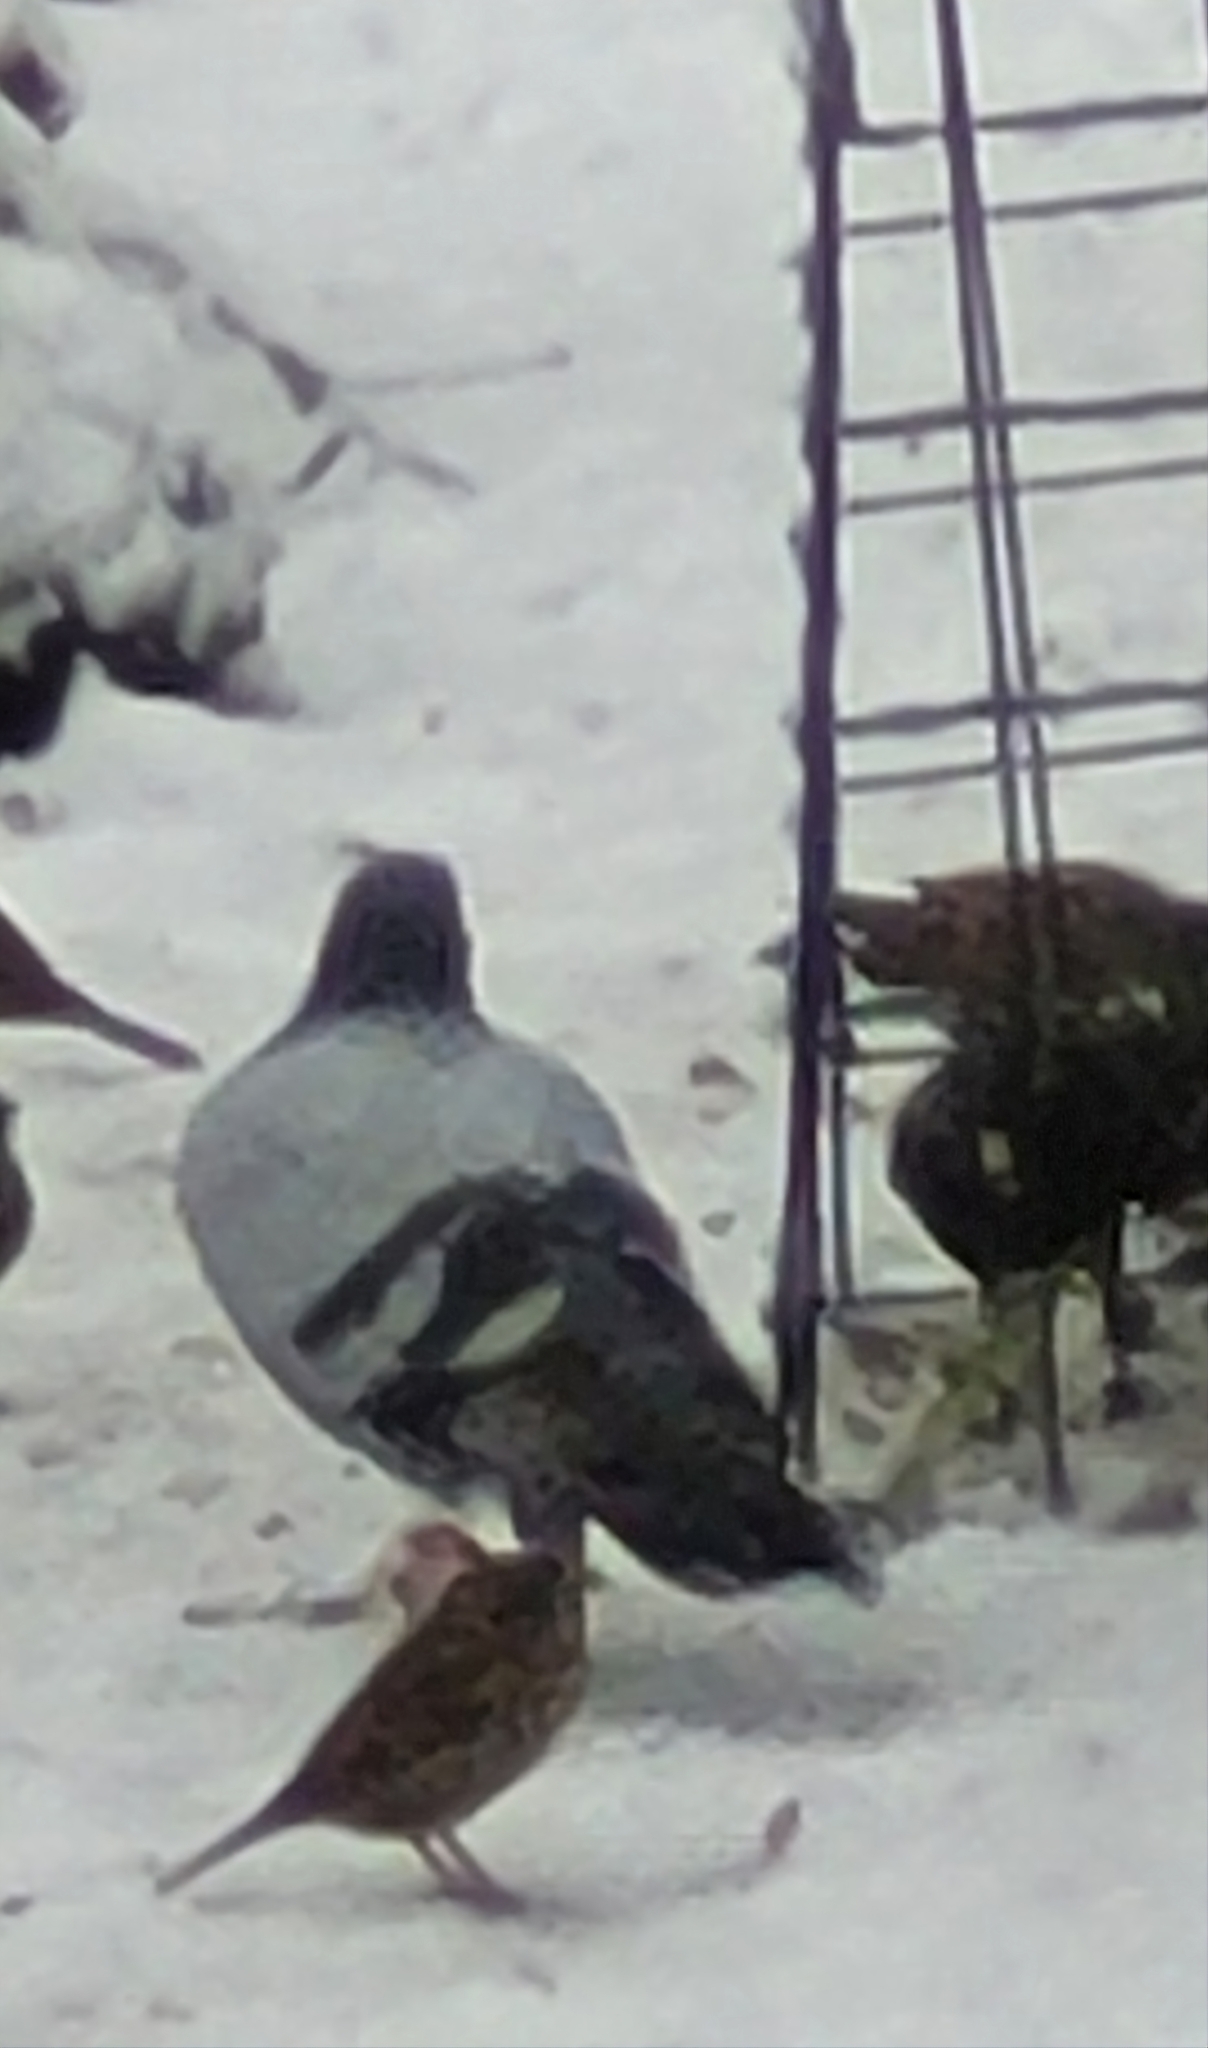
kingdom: Animalia
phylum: Chordata
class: Aves
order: Columbiformes
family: Columbidae
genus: Columba
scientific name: Columba livia
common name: Rock pigeon
